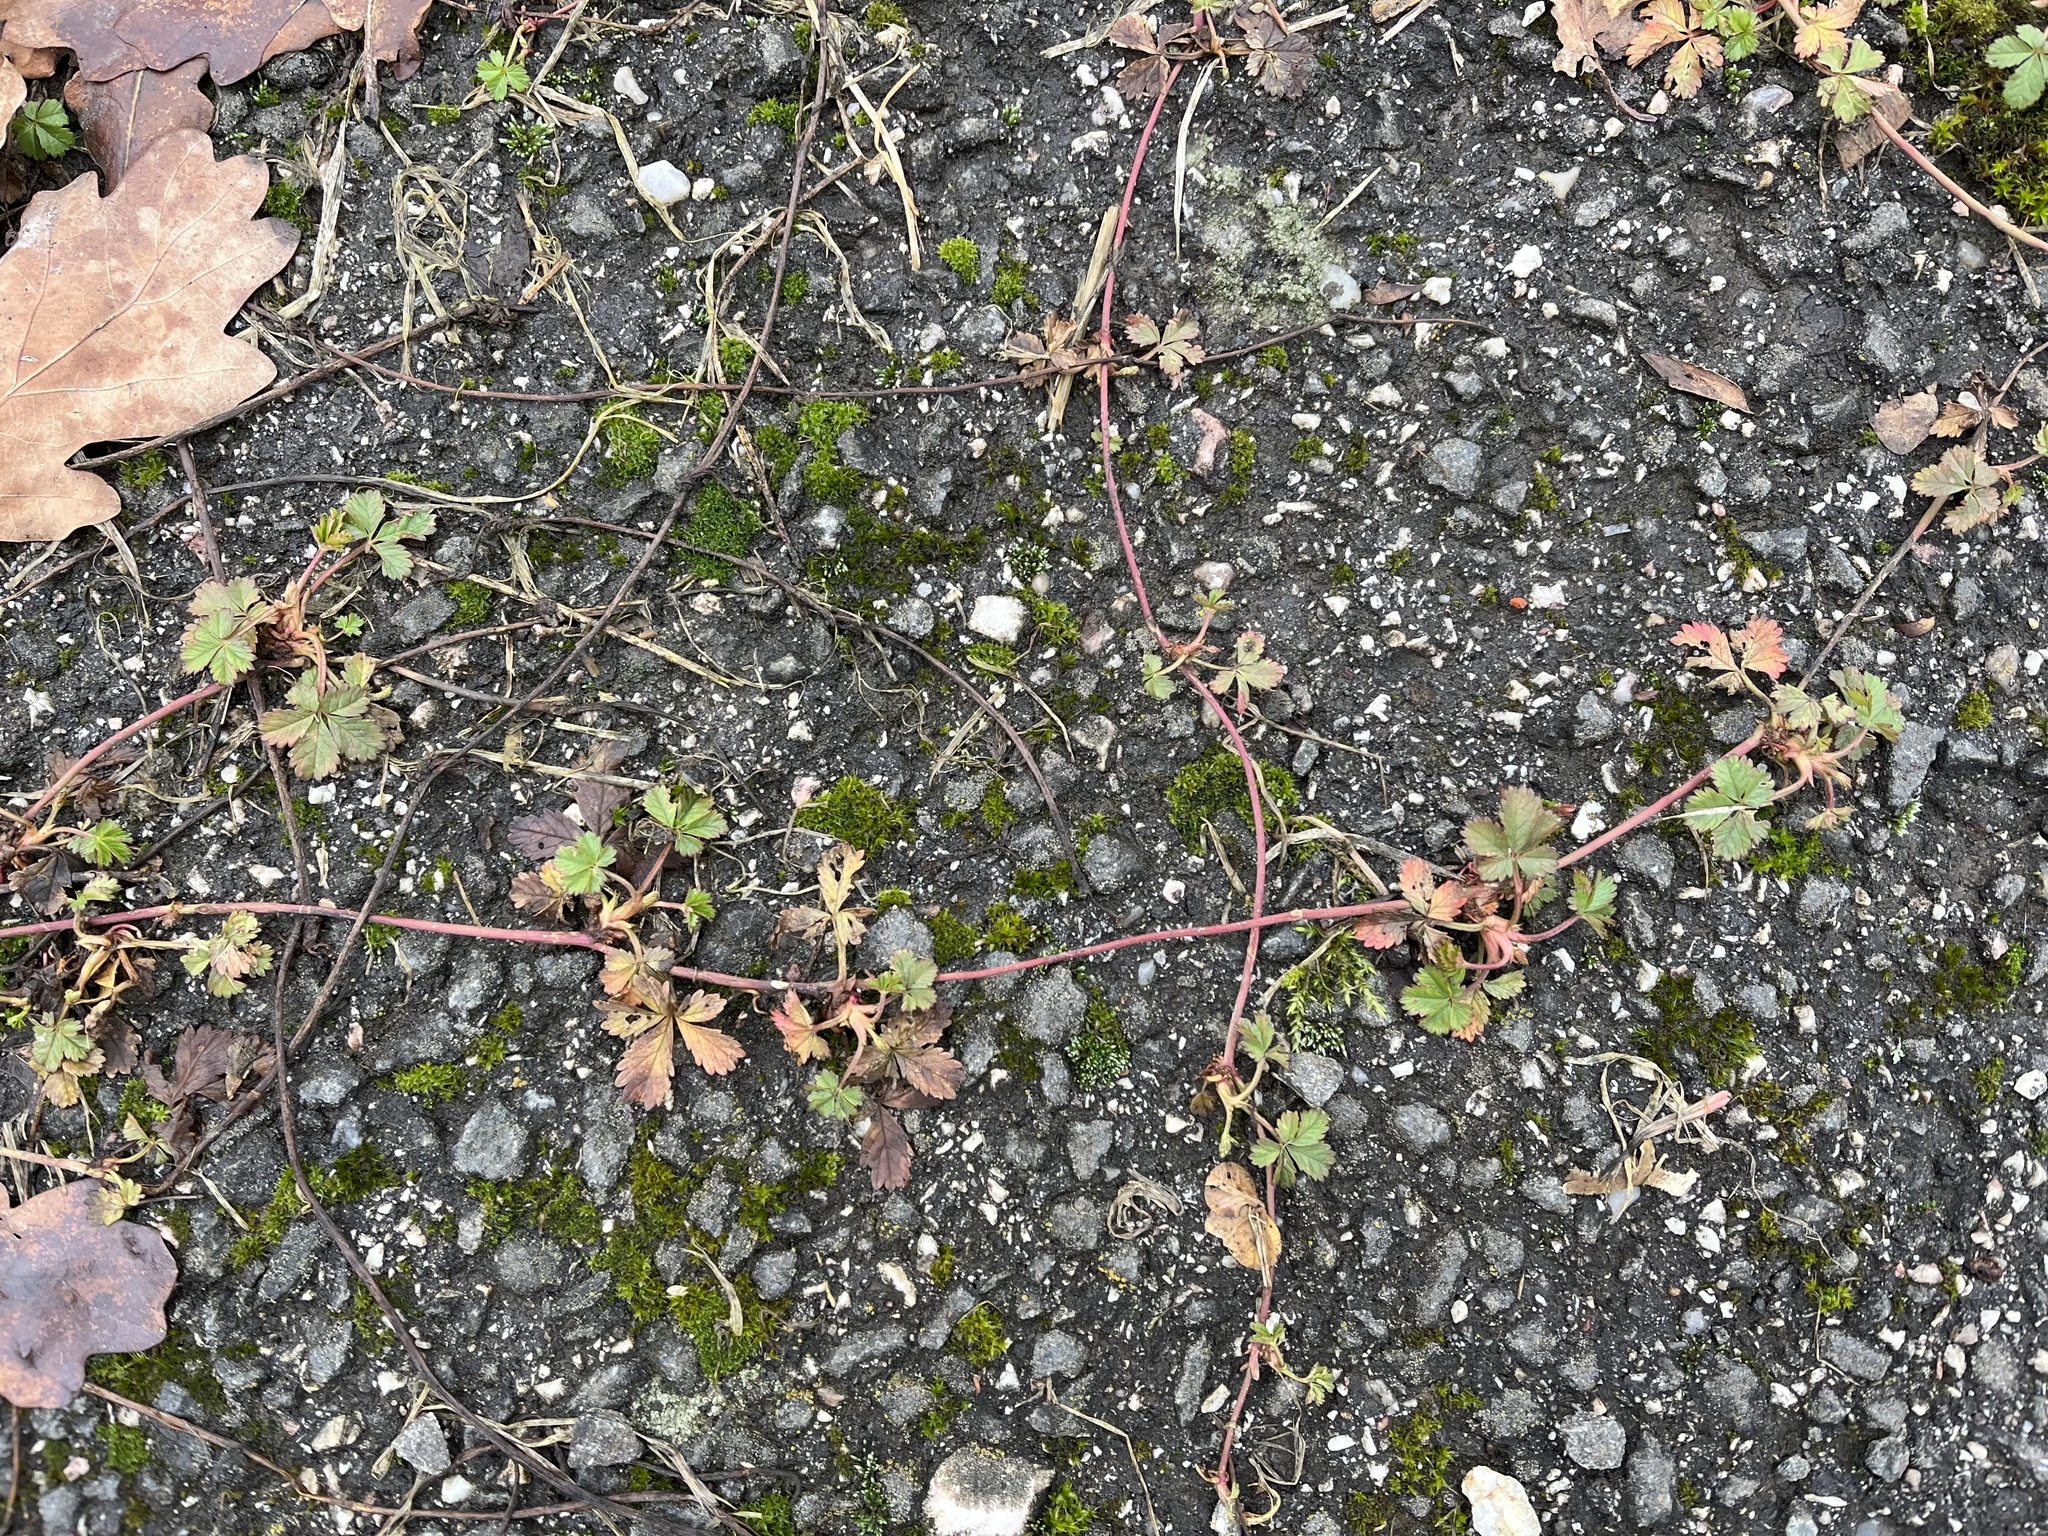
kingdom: Plantae
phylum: Tracheophyta
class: Magnoliopsida
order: Rosales
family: Rosaceae
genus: Potentilla
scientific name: Potentilla reptans
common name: Creeping cinquefoil
